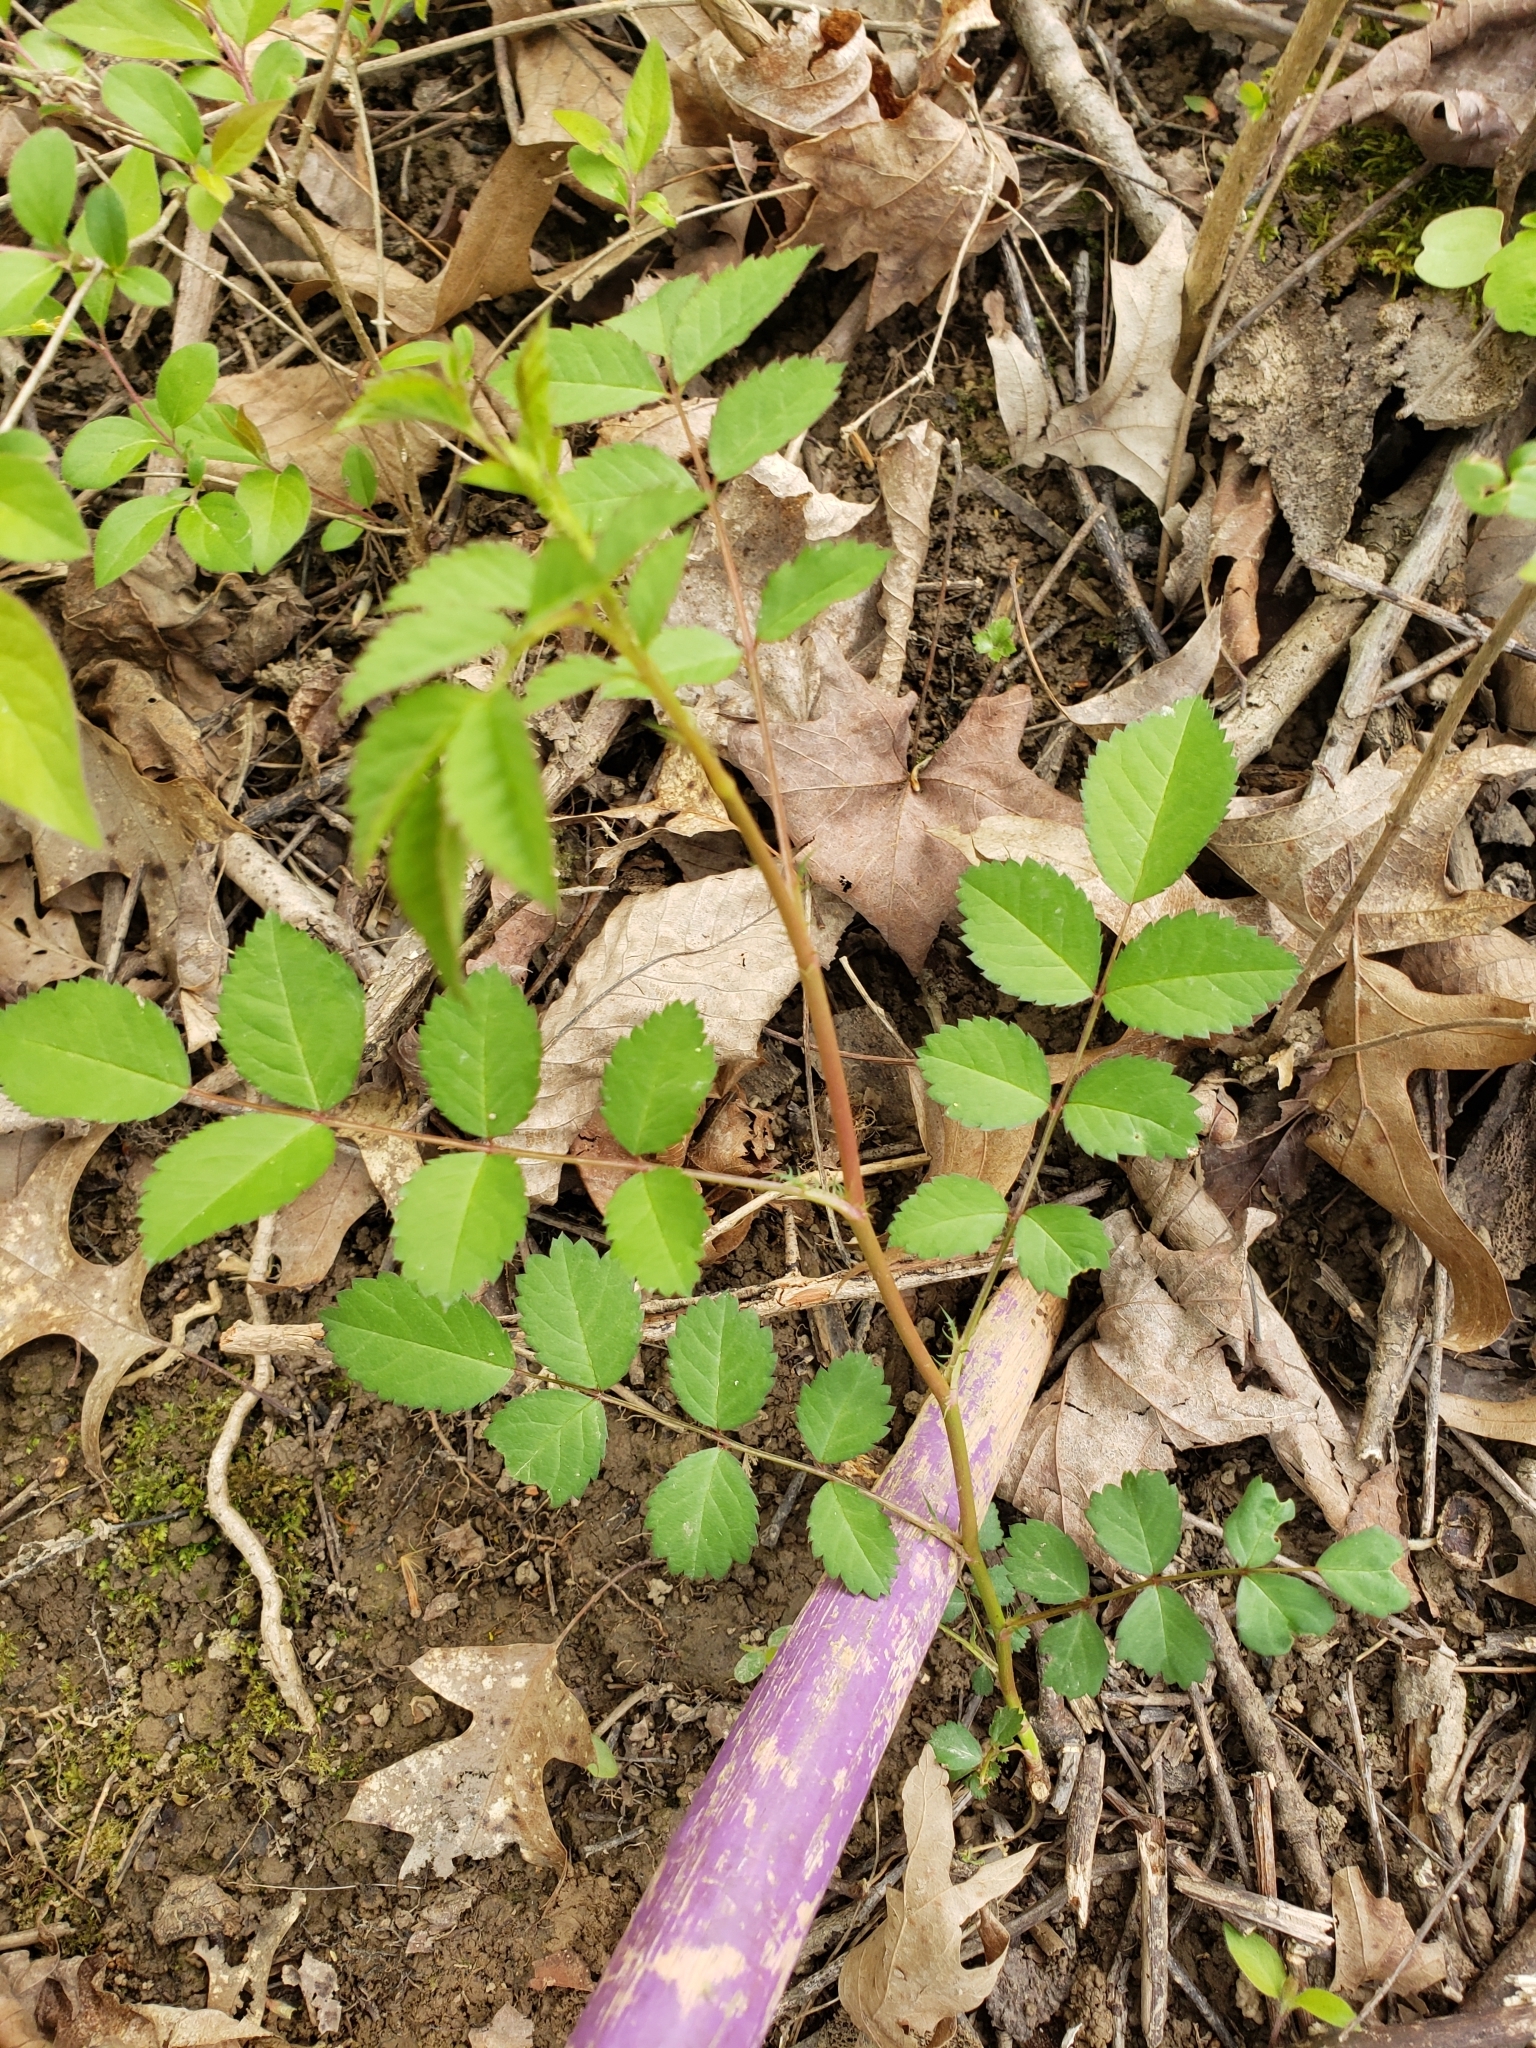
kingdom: Plantae
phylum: Tracheophyta
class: Magnoliopsida
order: Rosales
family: Rosaceae
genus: Rosa
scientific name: Rosa multiflora
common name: Multiflora rose
